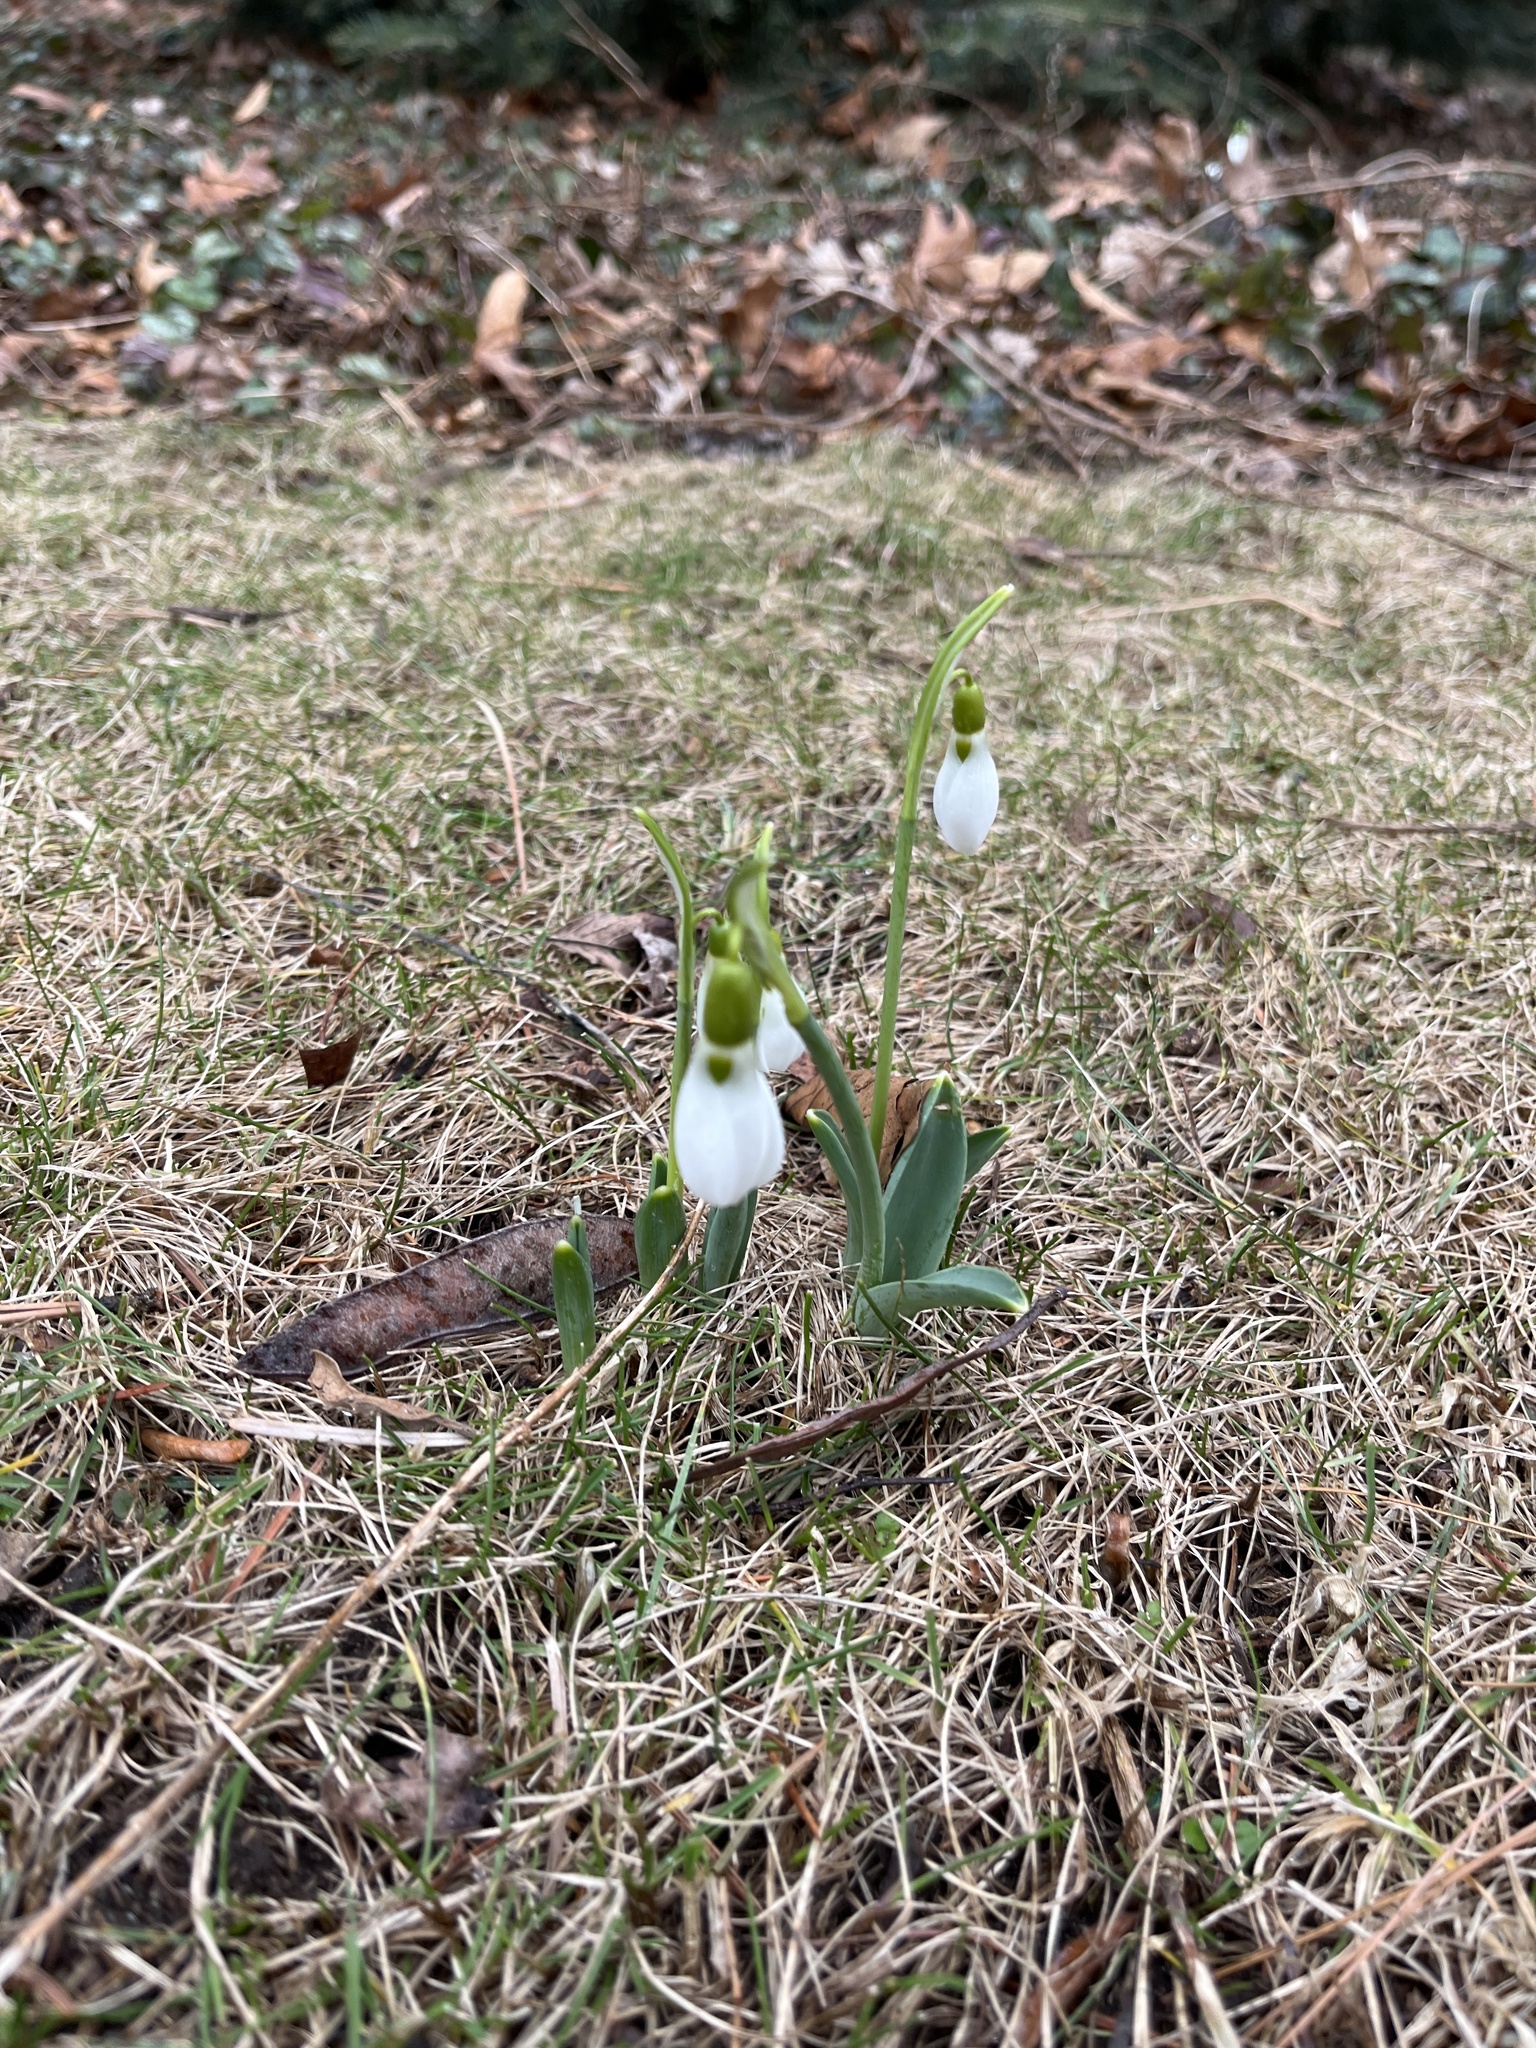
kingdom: Plantae
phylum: Tracheophyta
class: Liliopsida
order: Asparagales
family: Amaryllidaceae
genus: Galanthus
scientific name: Galanthus elwesii
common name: Greater snowdrop
